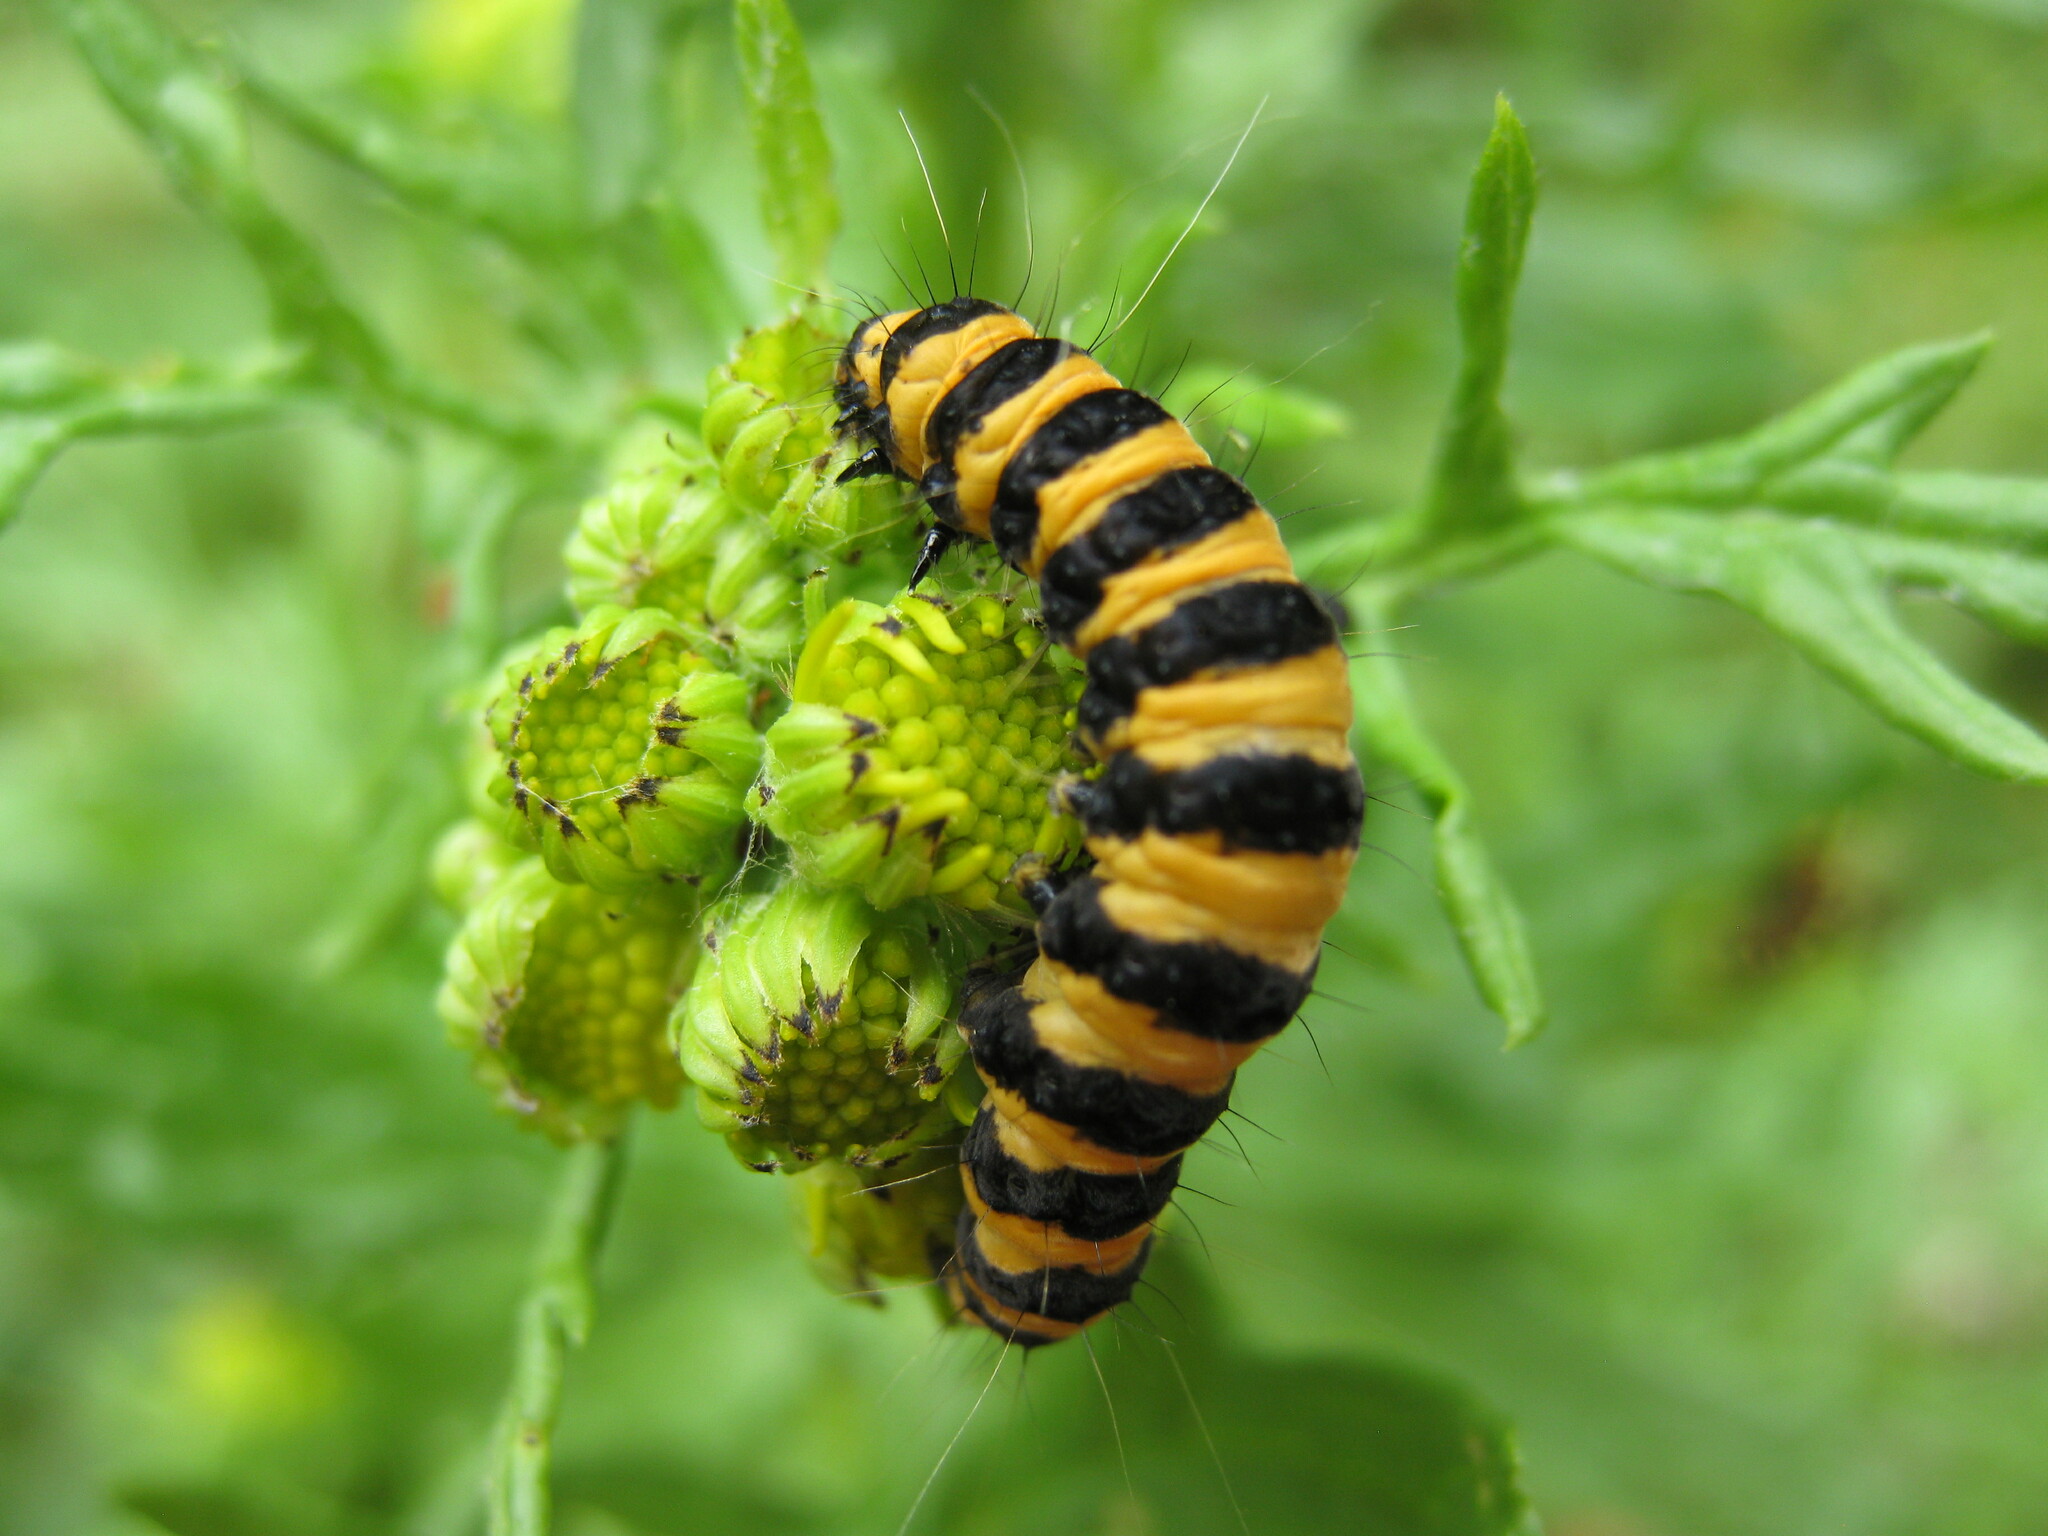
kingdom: Animalia
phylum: Arthropoda
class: Insecta
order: Lepidoptera
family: Erebidae
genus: Tyria
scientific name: Tyria jacobaeae
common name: Cinnabar
